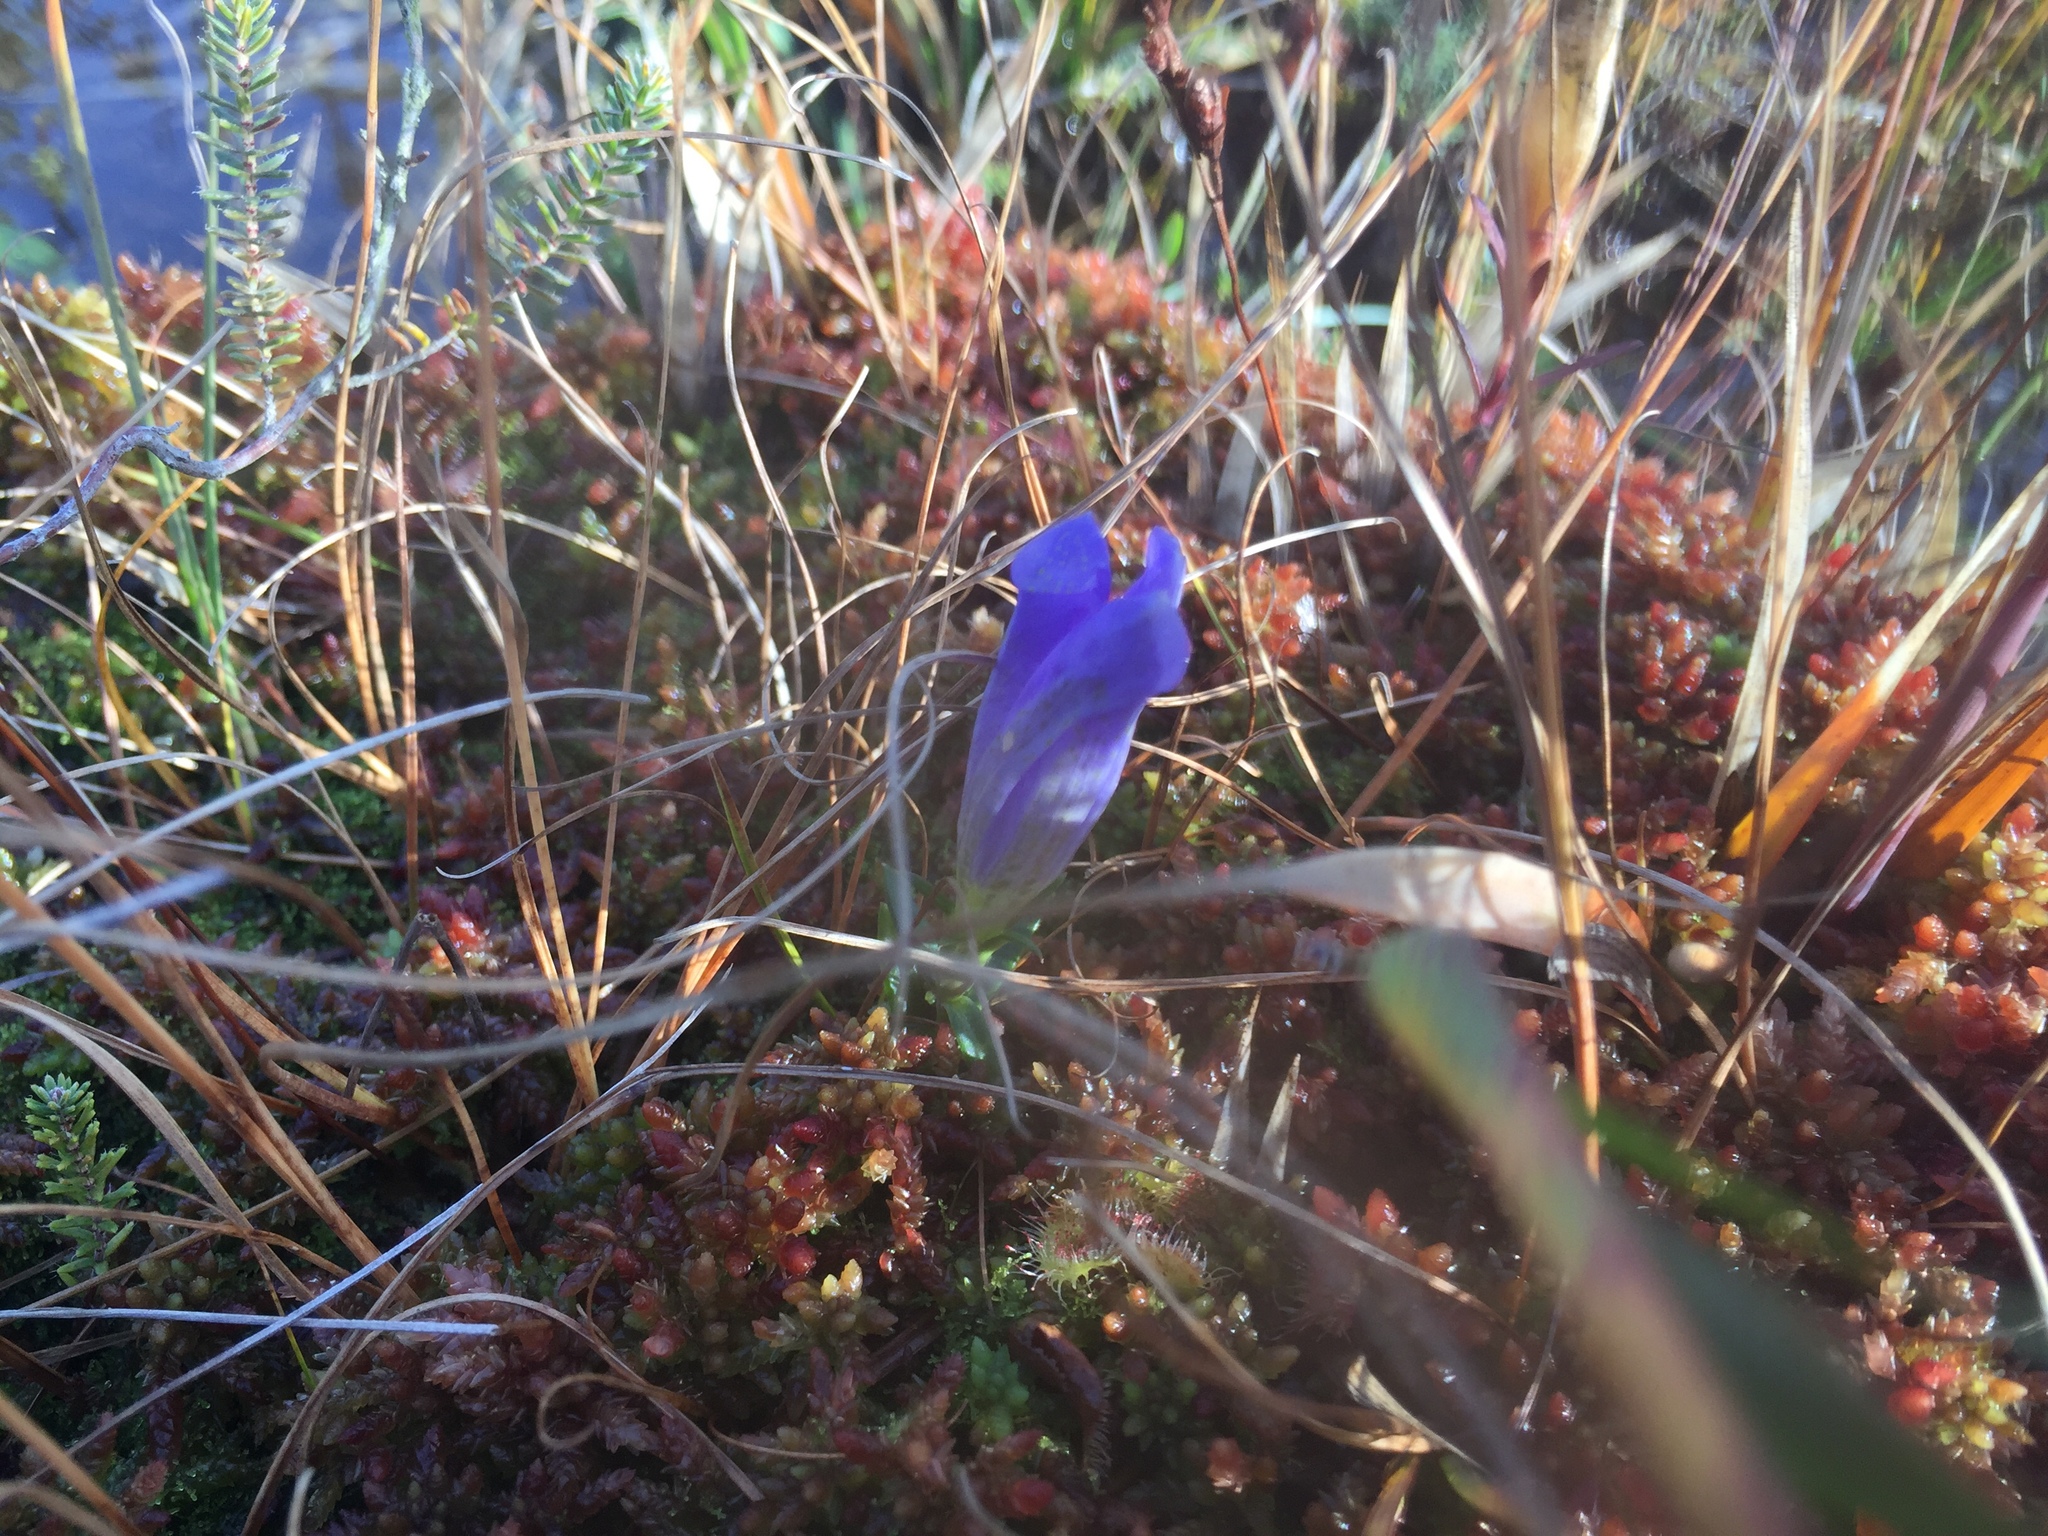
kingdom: Plantae
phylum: Tracheophyta
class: Magnoliopsida
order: Gentianales
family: Gentianaceae
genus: Gentiana
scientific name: Gentiana pneumonanthe
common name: Marsh gentian
